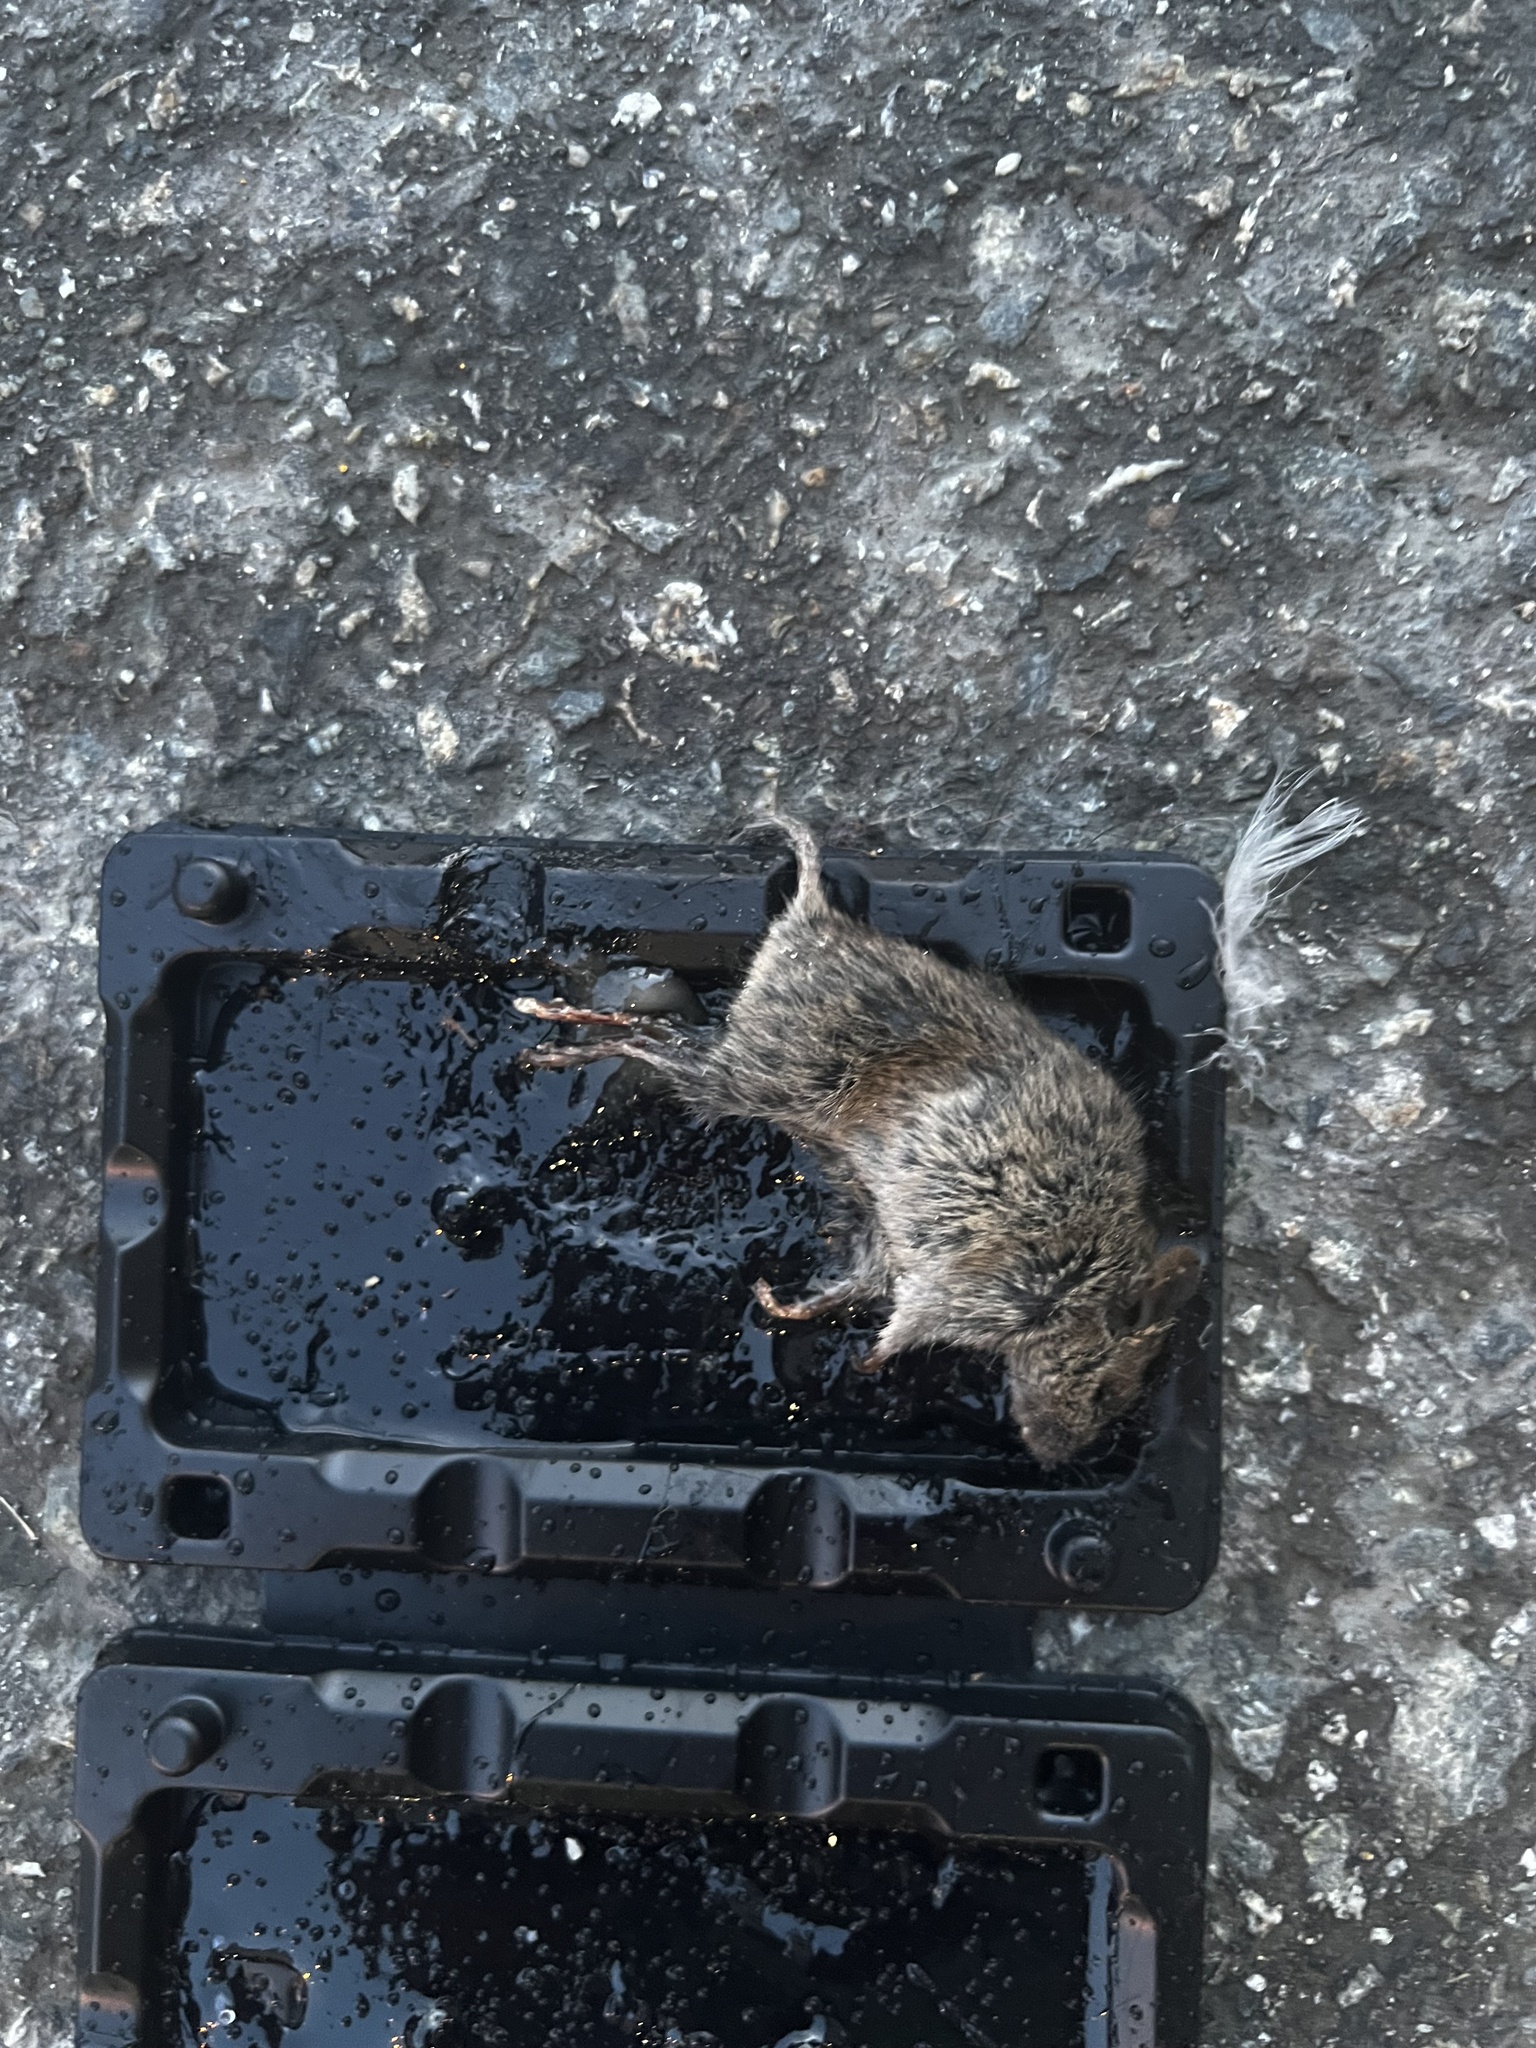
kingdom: Animalia
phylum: Chordata
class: Mammalia
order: Rodentia
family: Muridae
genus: Mus
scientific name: Mus musculus
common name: House mouse
